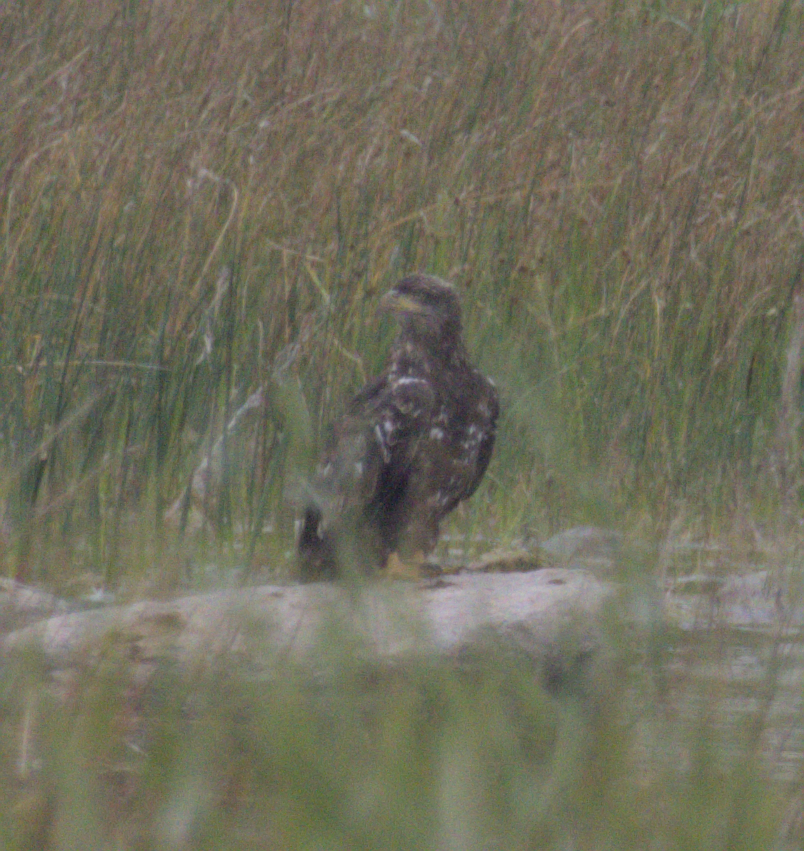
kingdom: Animalia
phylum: Chordata
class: Aves
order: Accipitriformes
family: Accipitridae
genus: Haliaeetus
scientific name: Haliaeetus leucocephalus
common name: Bald eagle
